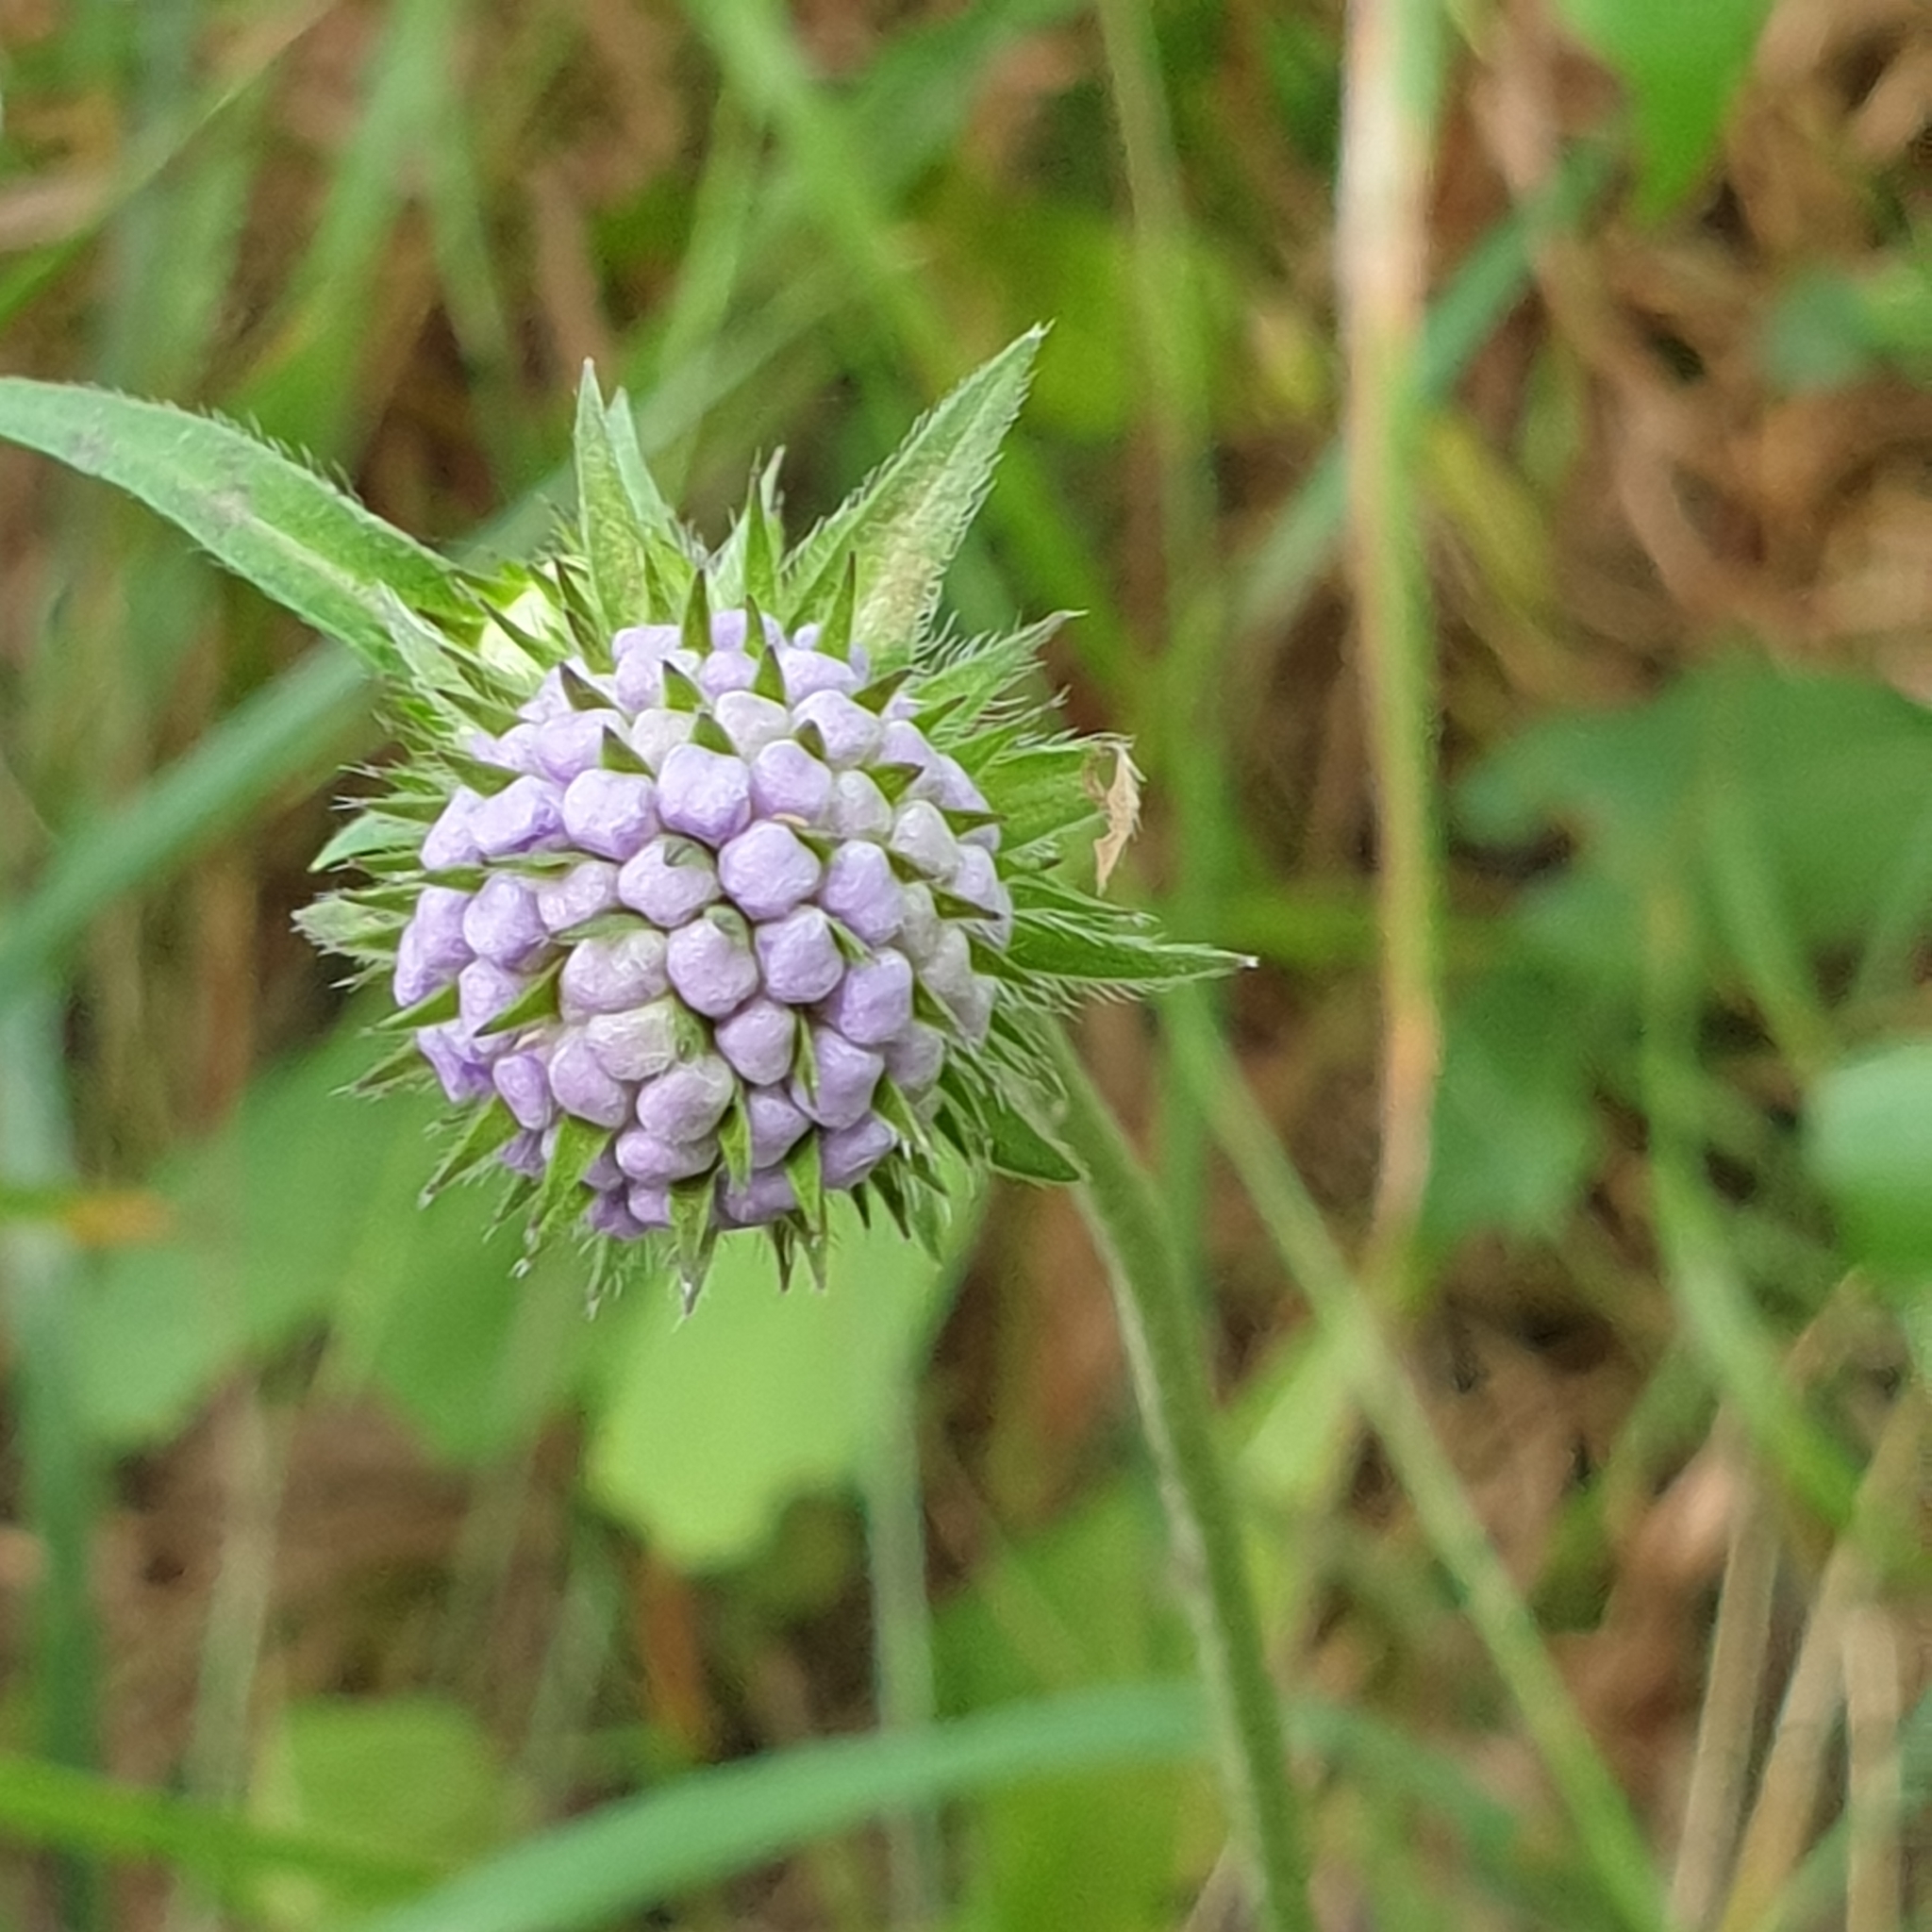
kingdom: Plantae
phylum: Tracheophyta
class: Magnoliopsida
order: Dipsacales
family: Caprifoliaceae
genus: Succisa
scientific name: Succisa pratensis
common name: Devil's-bit
